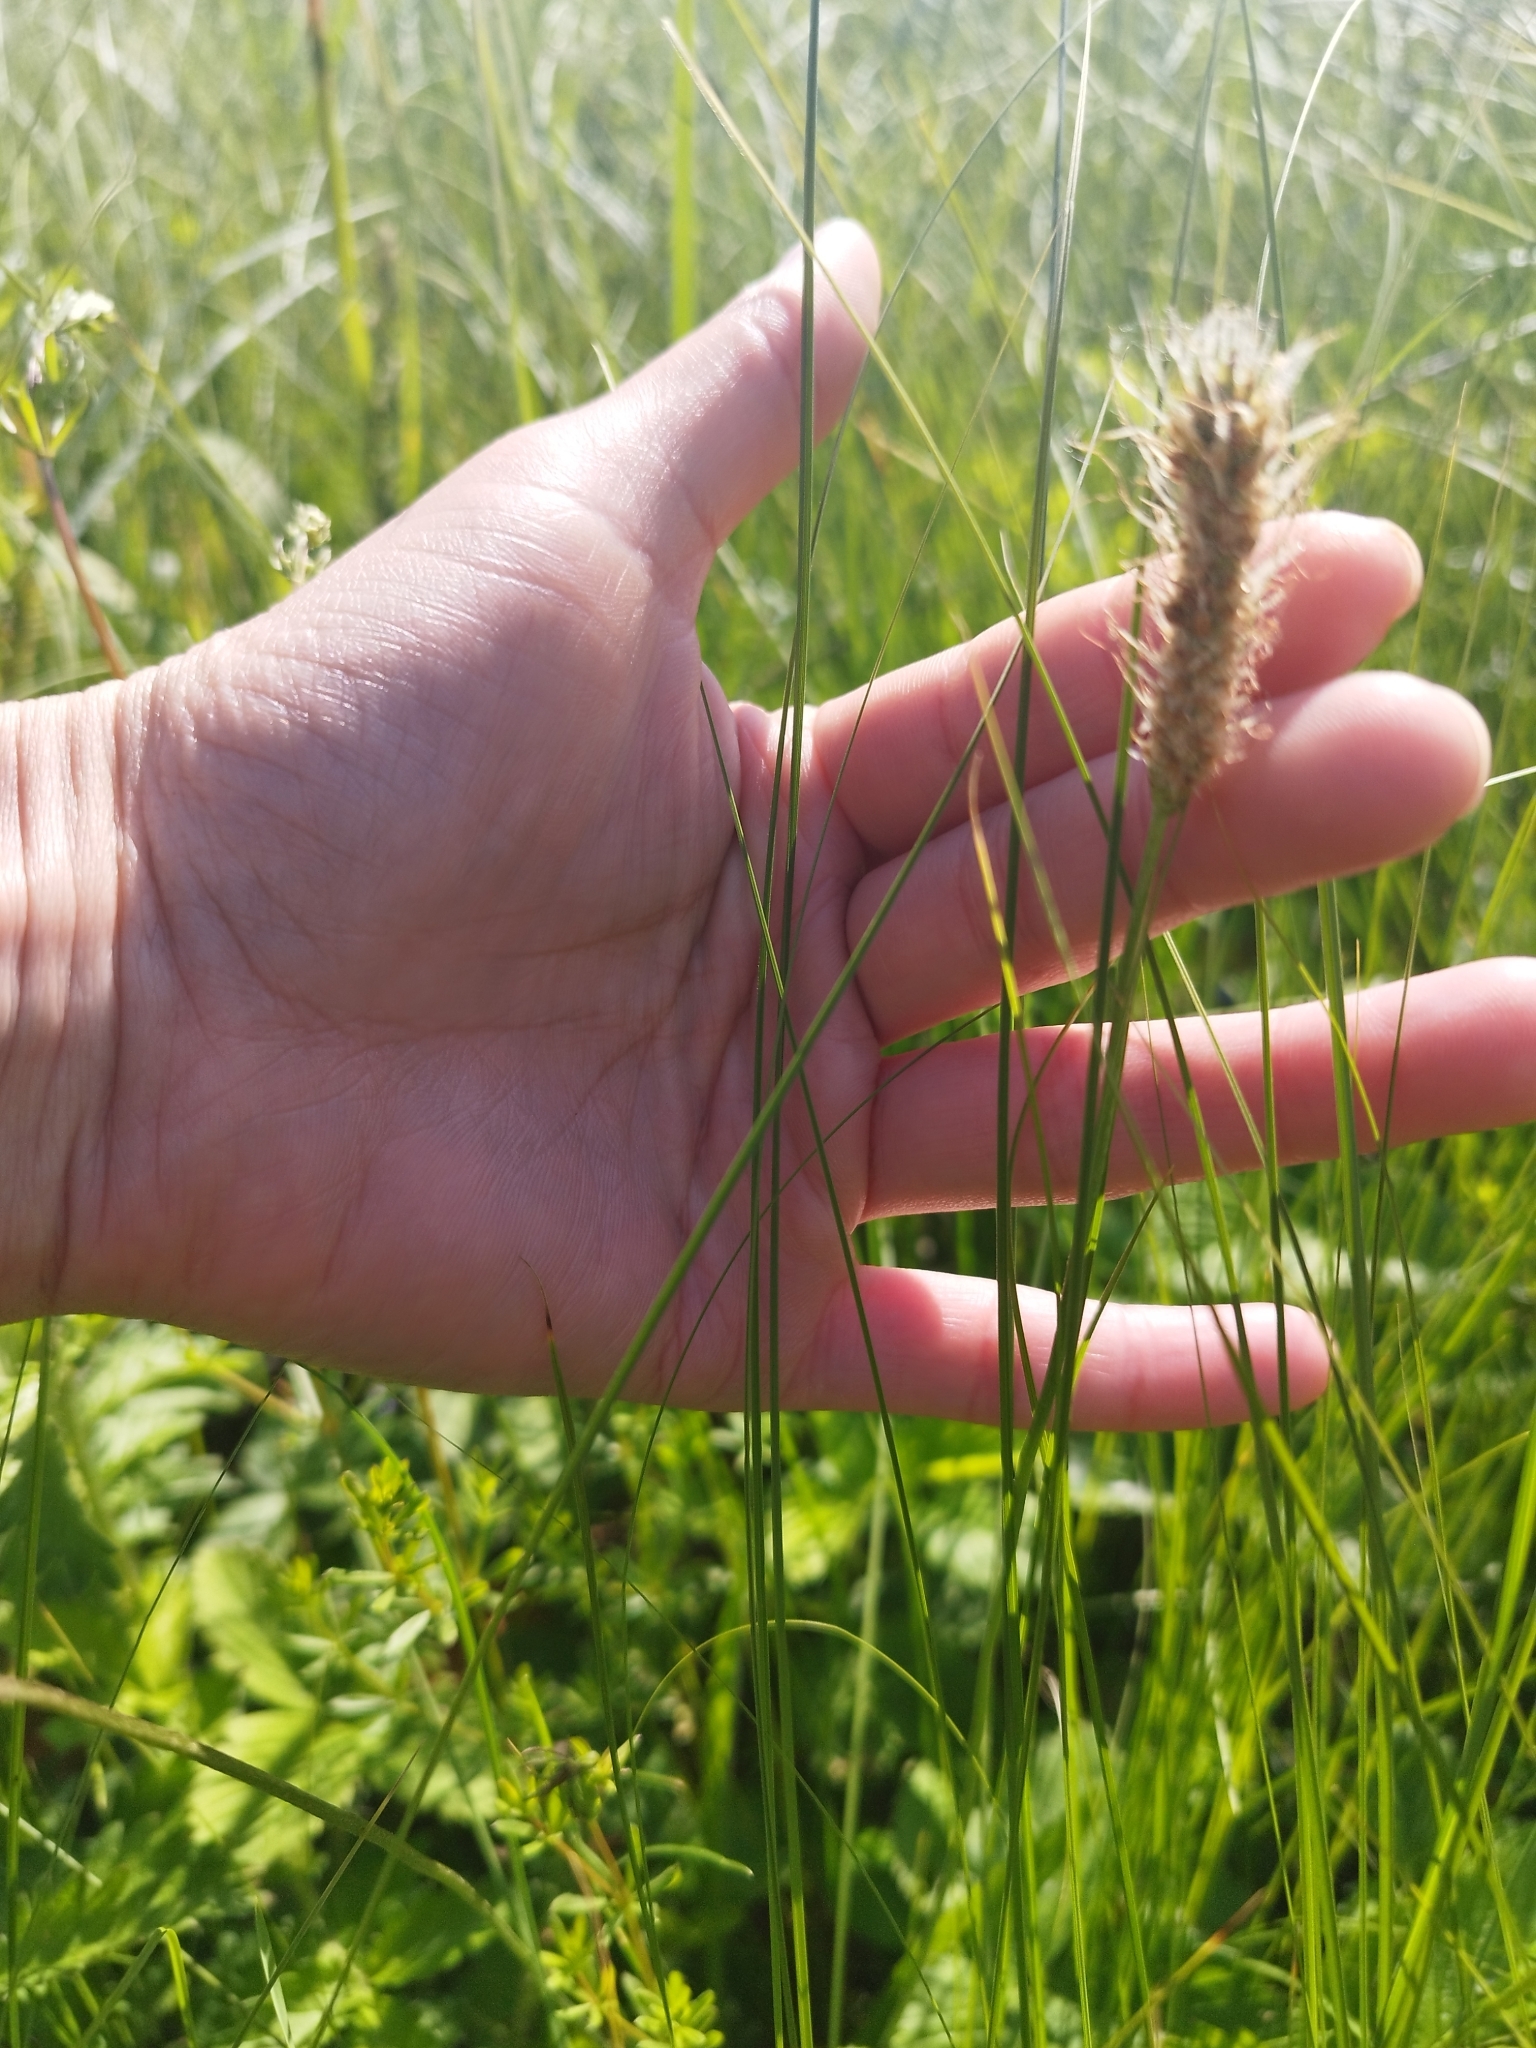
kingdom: Plantae
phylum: Tracheophyta
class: Magnoliopsida
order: Lamiales
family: Plantaginaceae
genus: Plantago
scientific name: Plantago lanceolata
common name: Ribwort plantain
